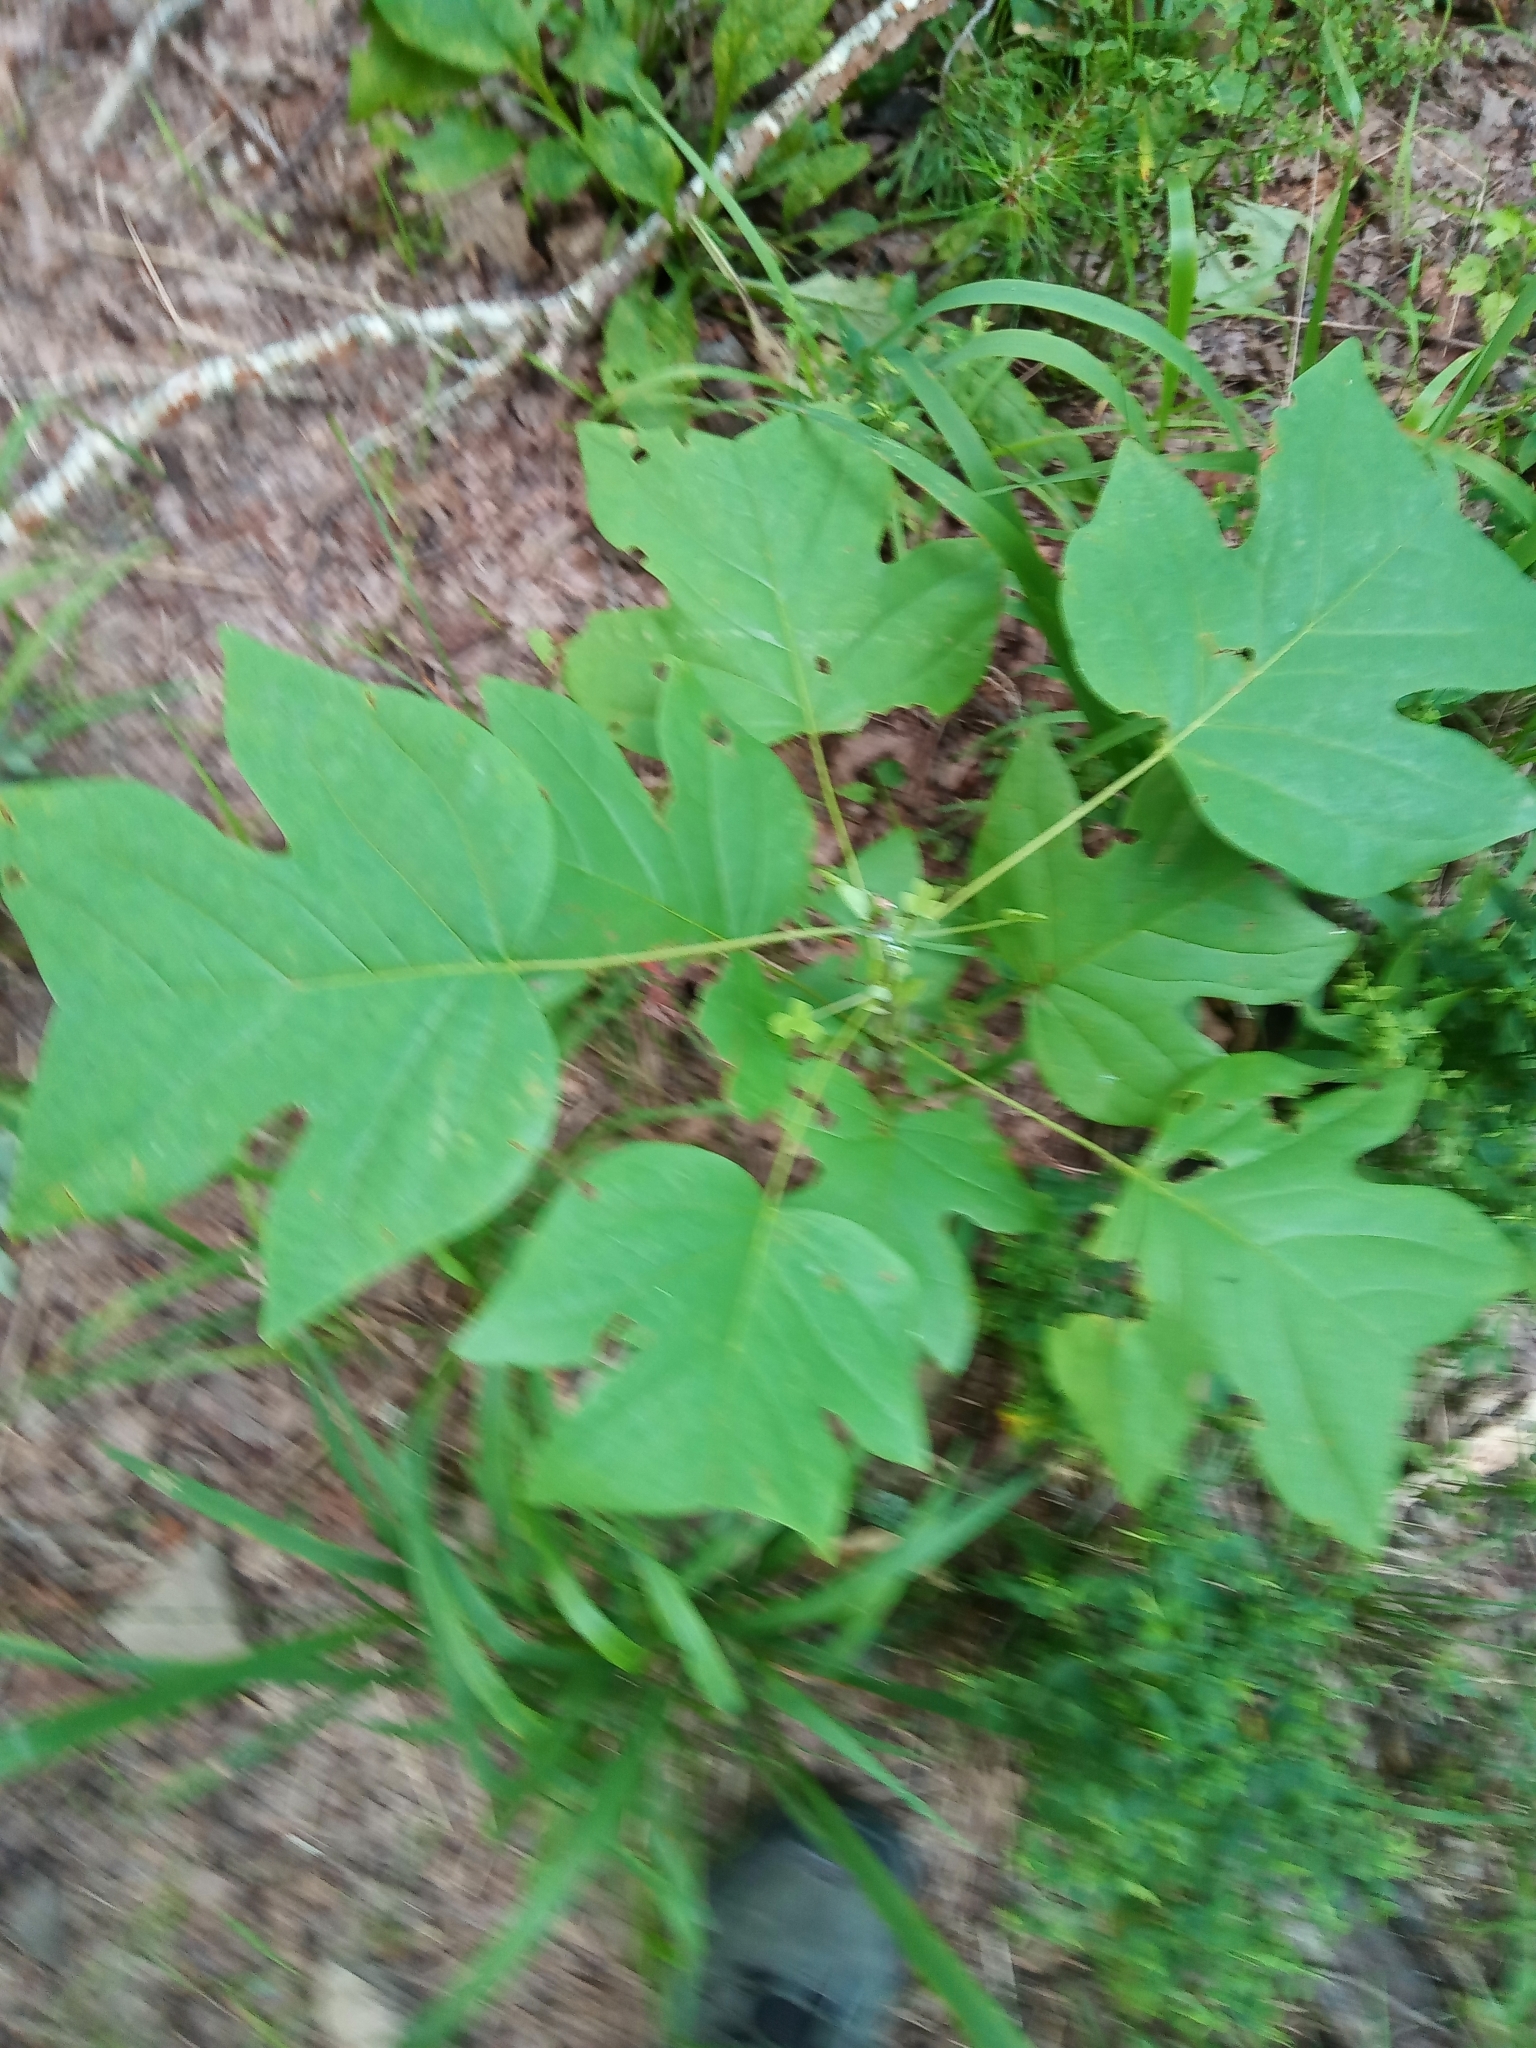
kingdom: Plantae
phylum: Tracheophyta
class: Magnoliopsida
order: Magnoliales
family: Magnoliaceae
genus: Liriodendron
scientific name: Liriodendron tulipifera
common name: Tulip tree
